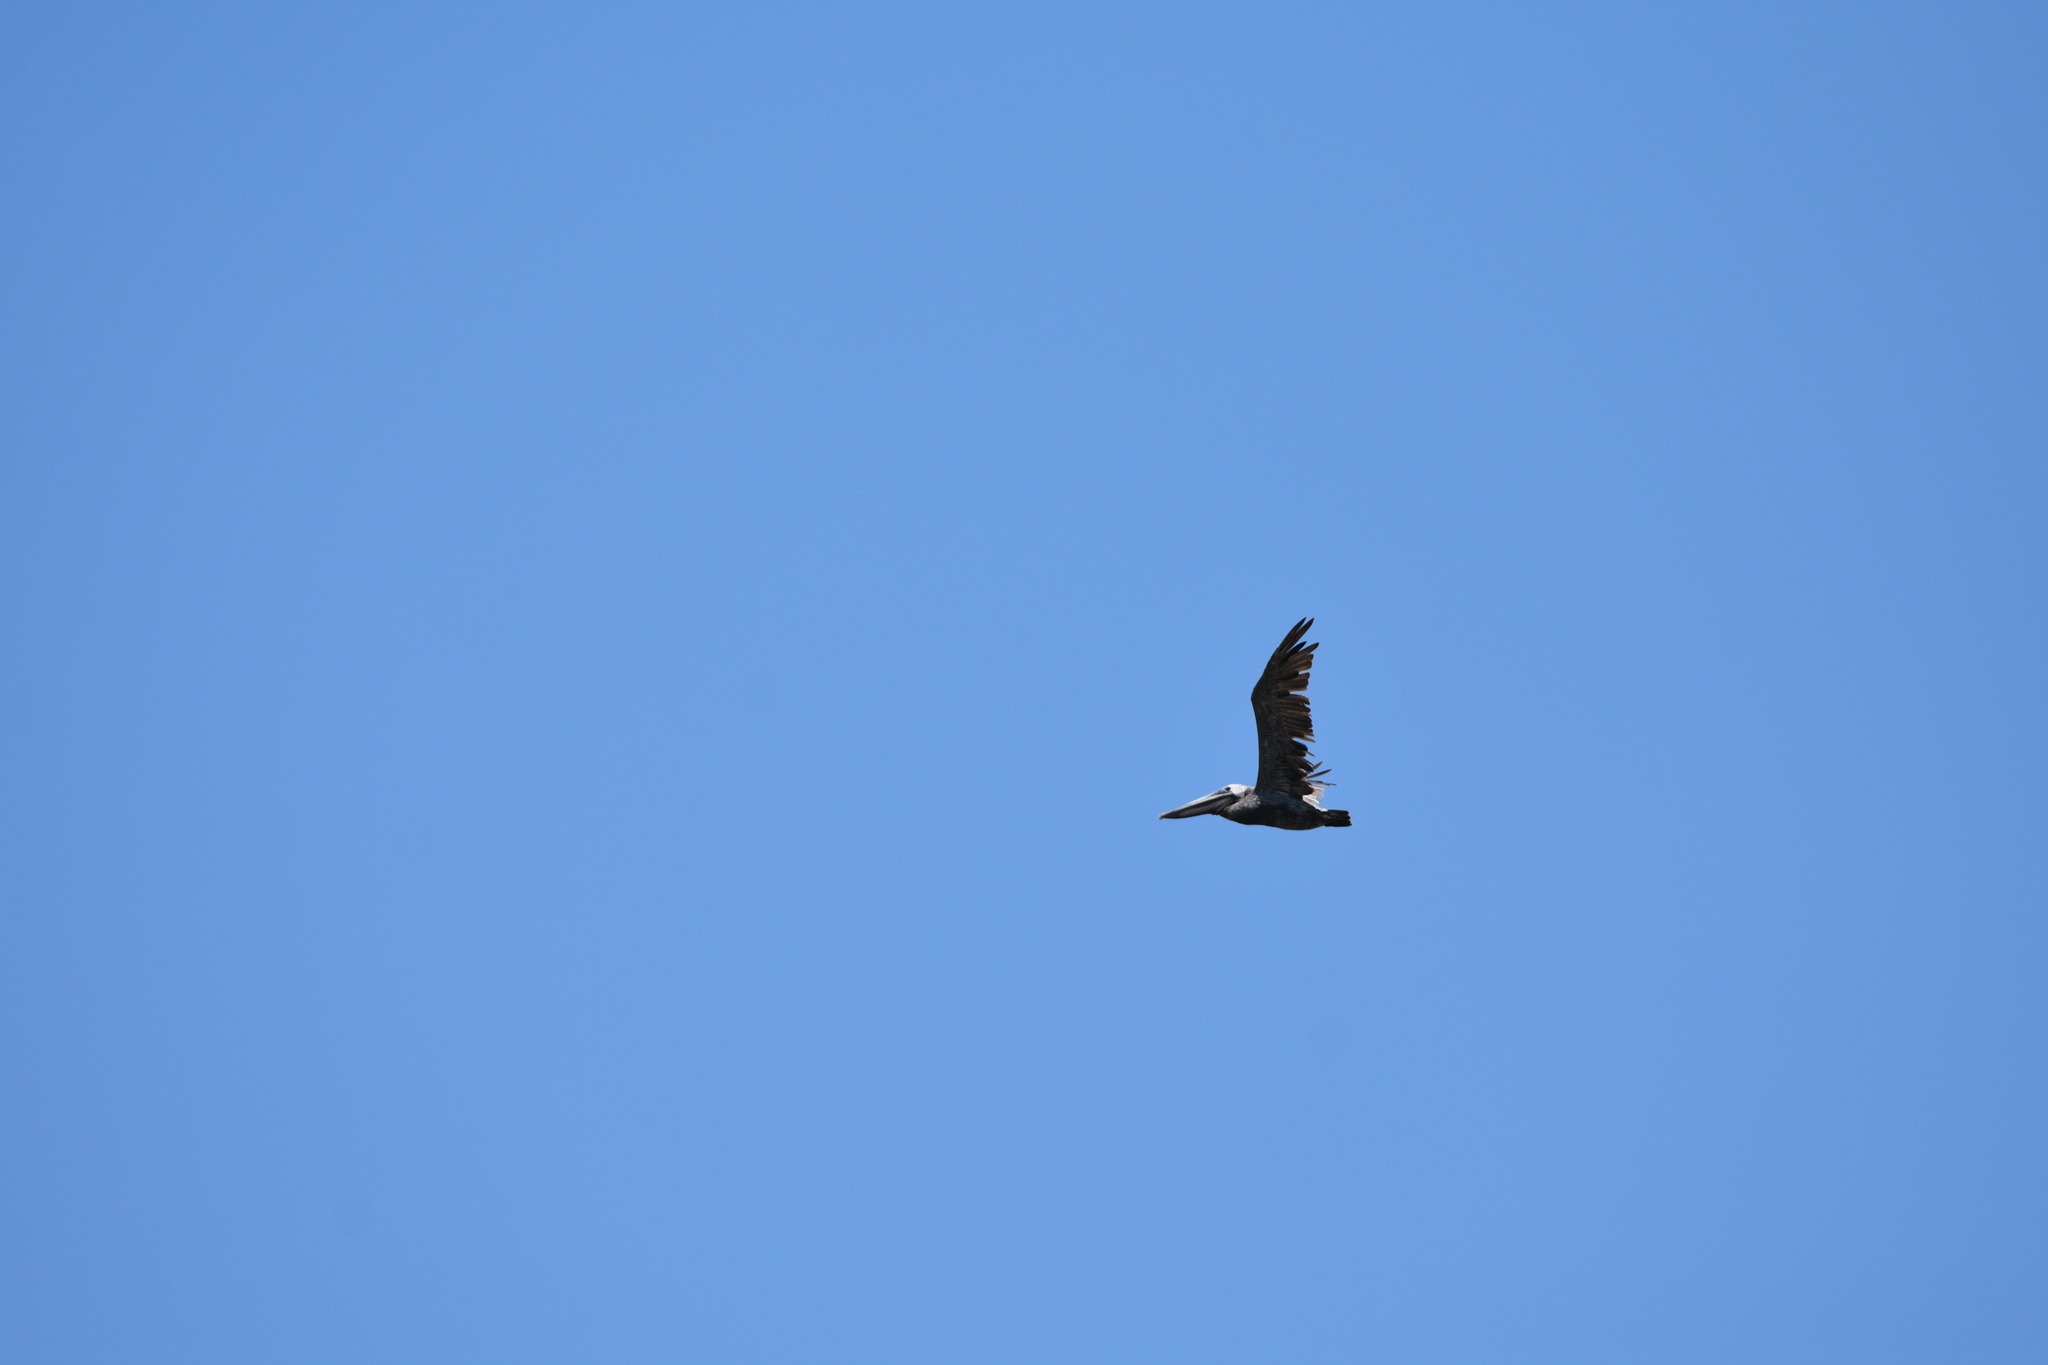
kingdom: Animalia
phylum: Chordata
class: Aves
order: Pelecaniformes
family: Pelecanidae
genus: Pelecanus
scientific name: Pelecanus occidentalis
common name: Brown pelican
